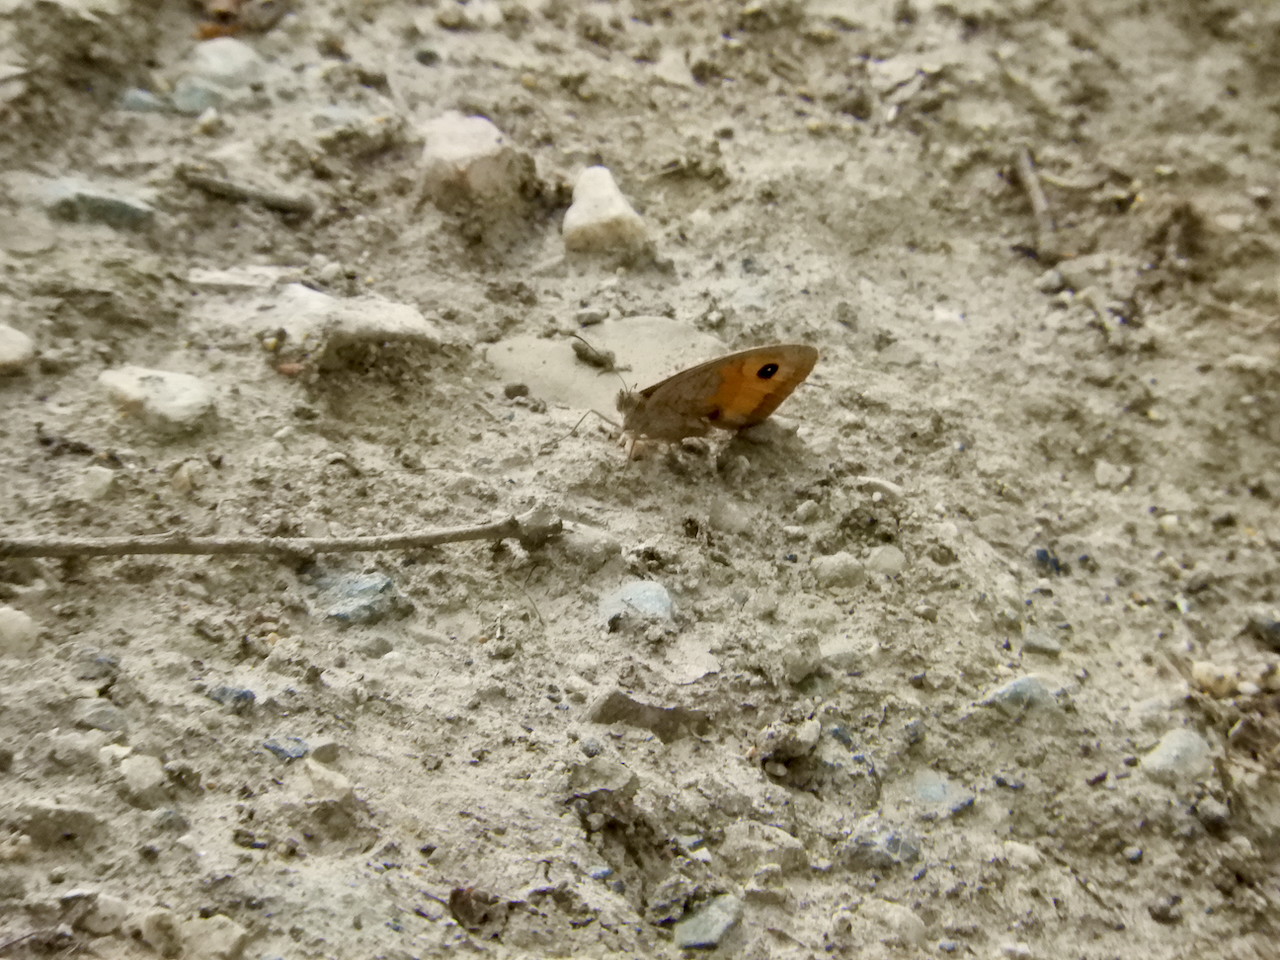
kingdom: Animalia
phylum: Arthropoda
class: Insecta
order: Lepidoptera
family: Nymphalidae
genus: Maniola
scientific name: Maniola jurtina
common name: Meadow brown
